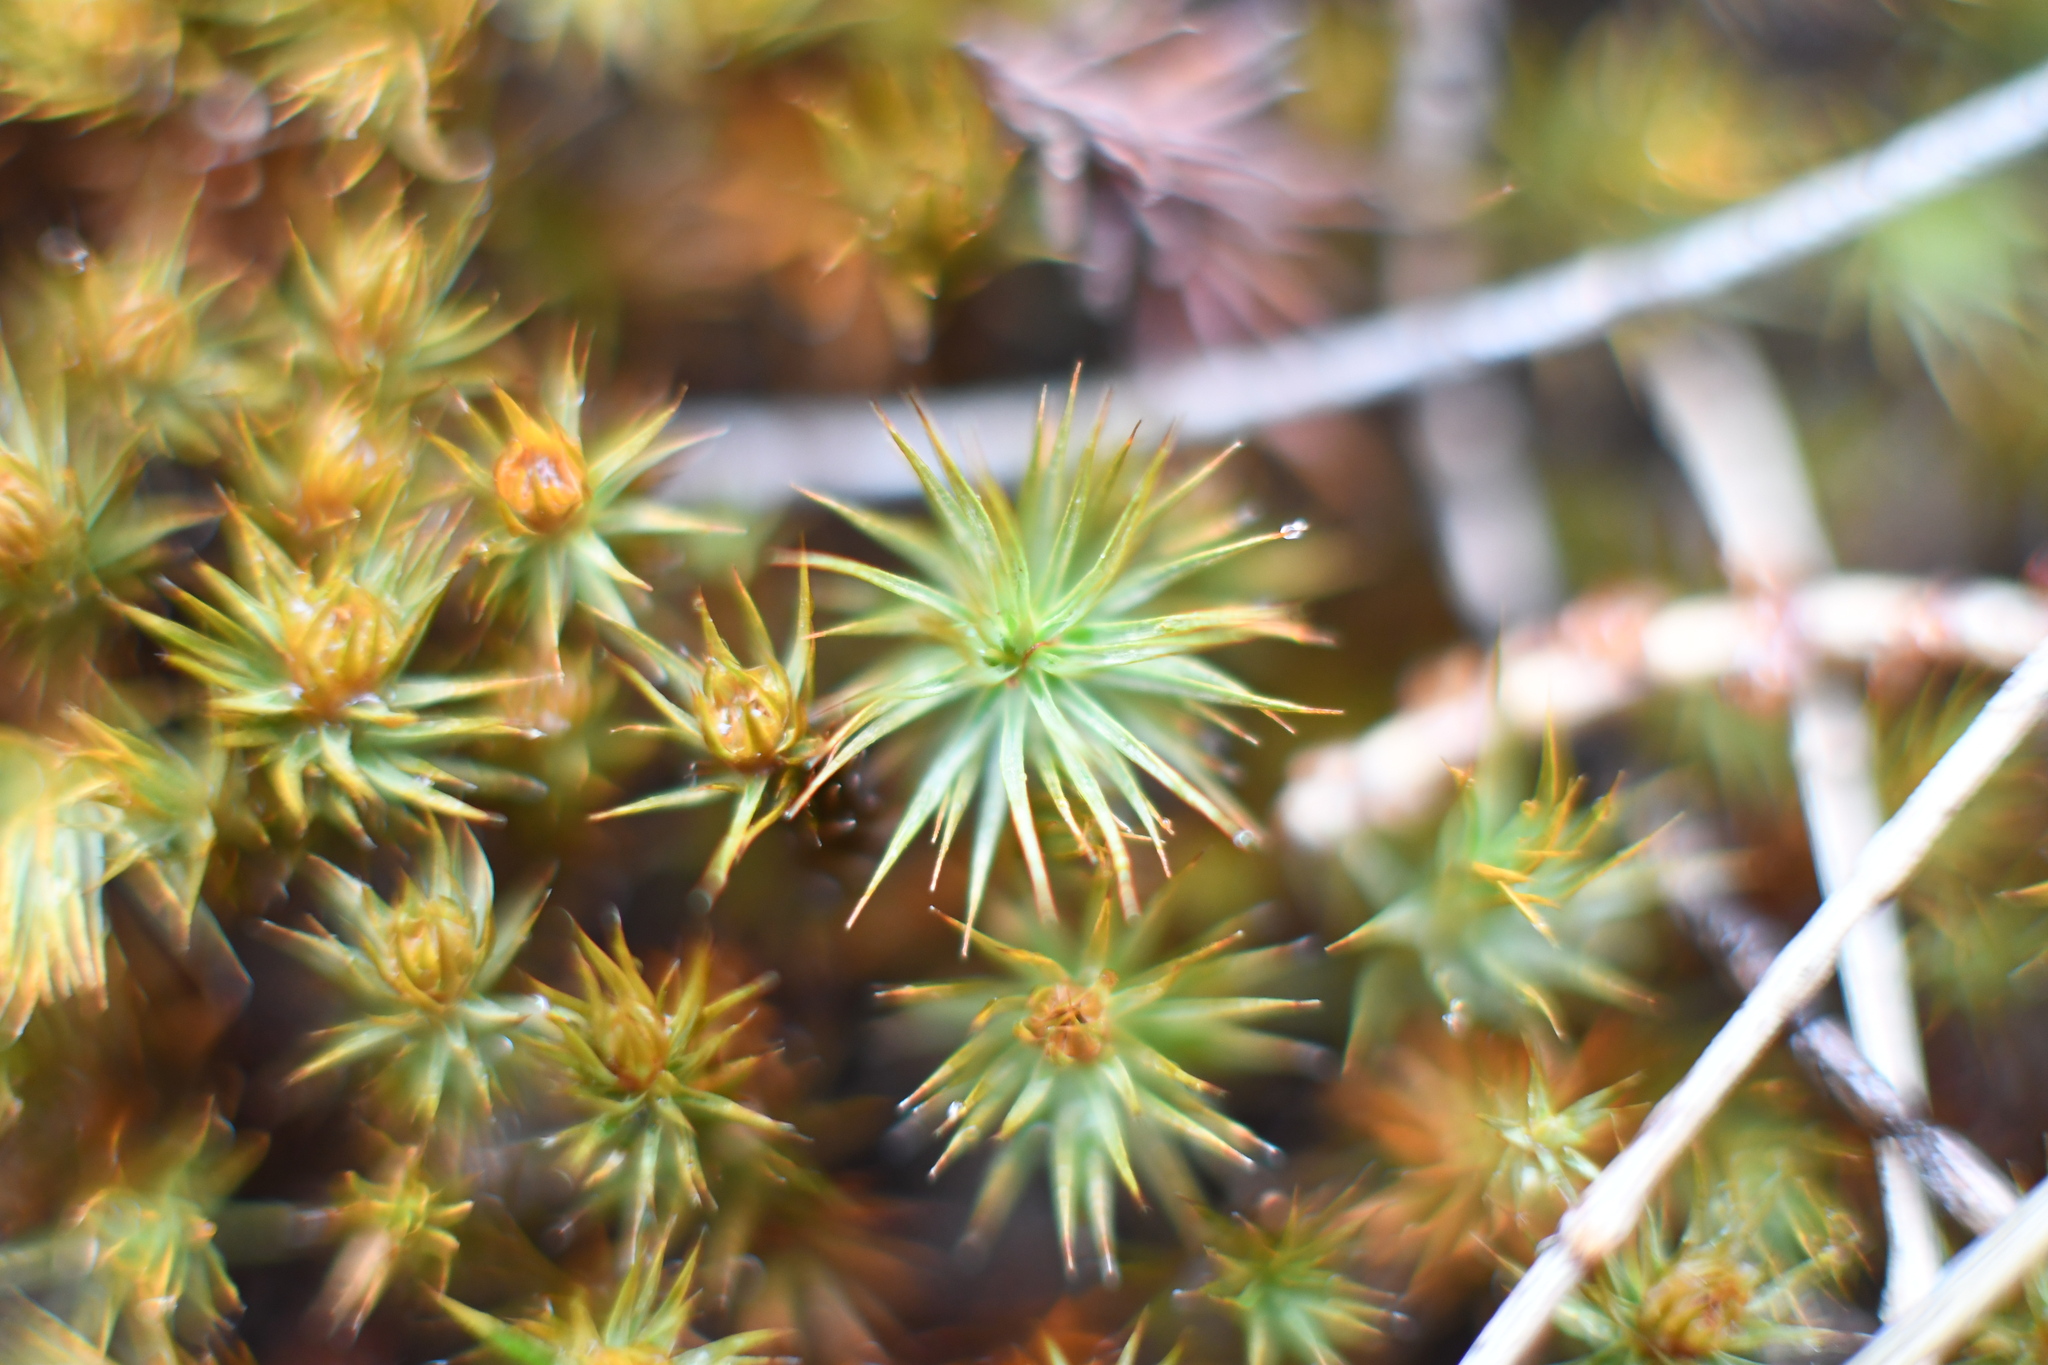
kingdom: Plantae
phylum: Bryophyta
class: Polytrichopsida
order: Polytrichales
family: Polytrichaceae
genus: Polytrichum
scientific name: Polytrichum juniperinum
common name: Juniper haircap moss
